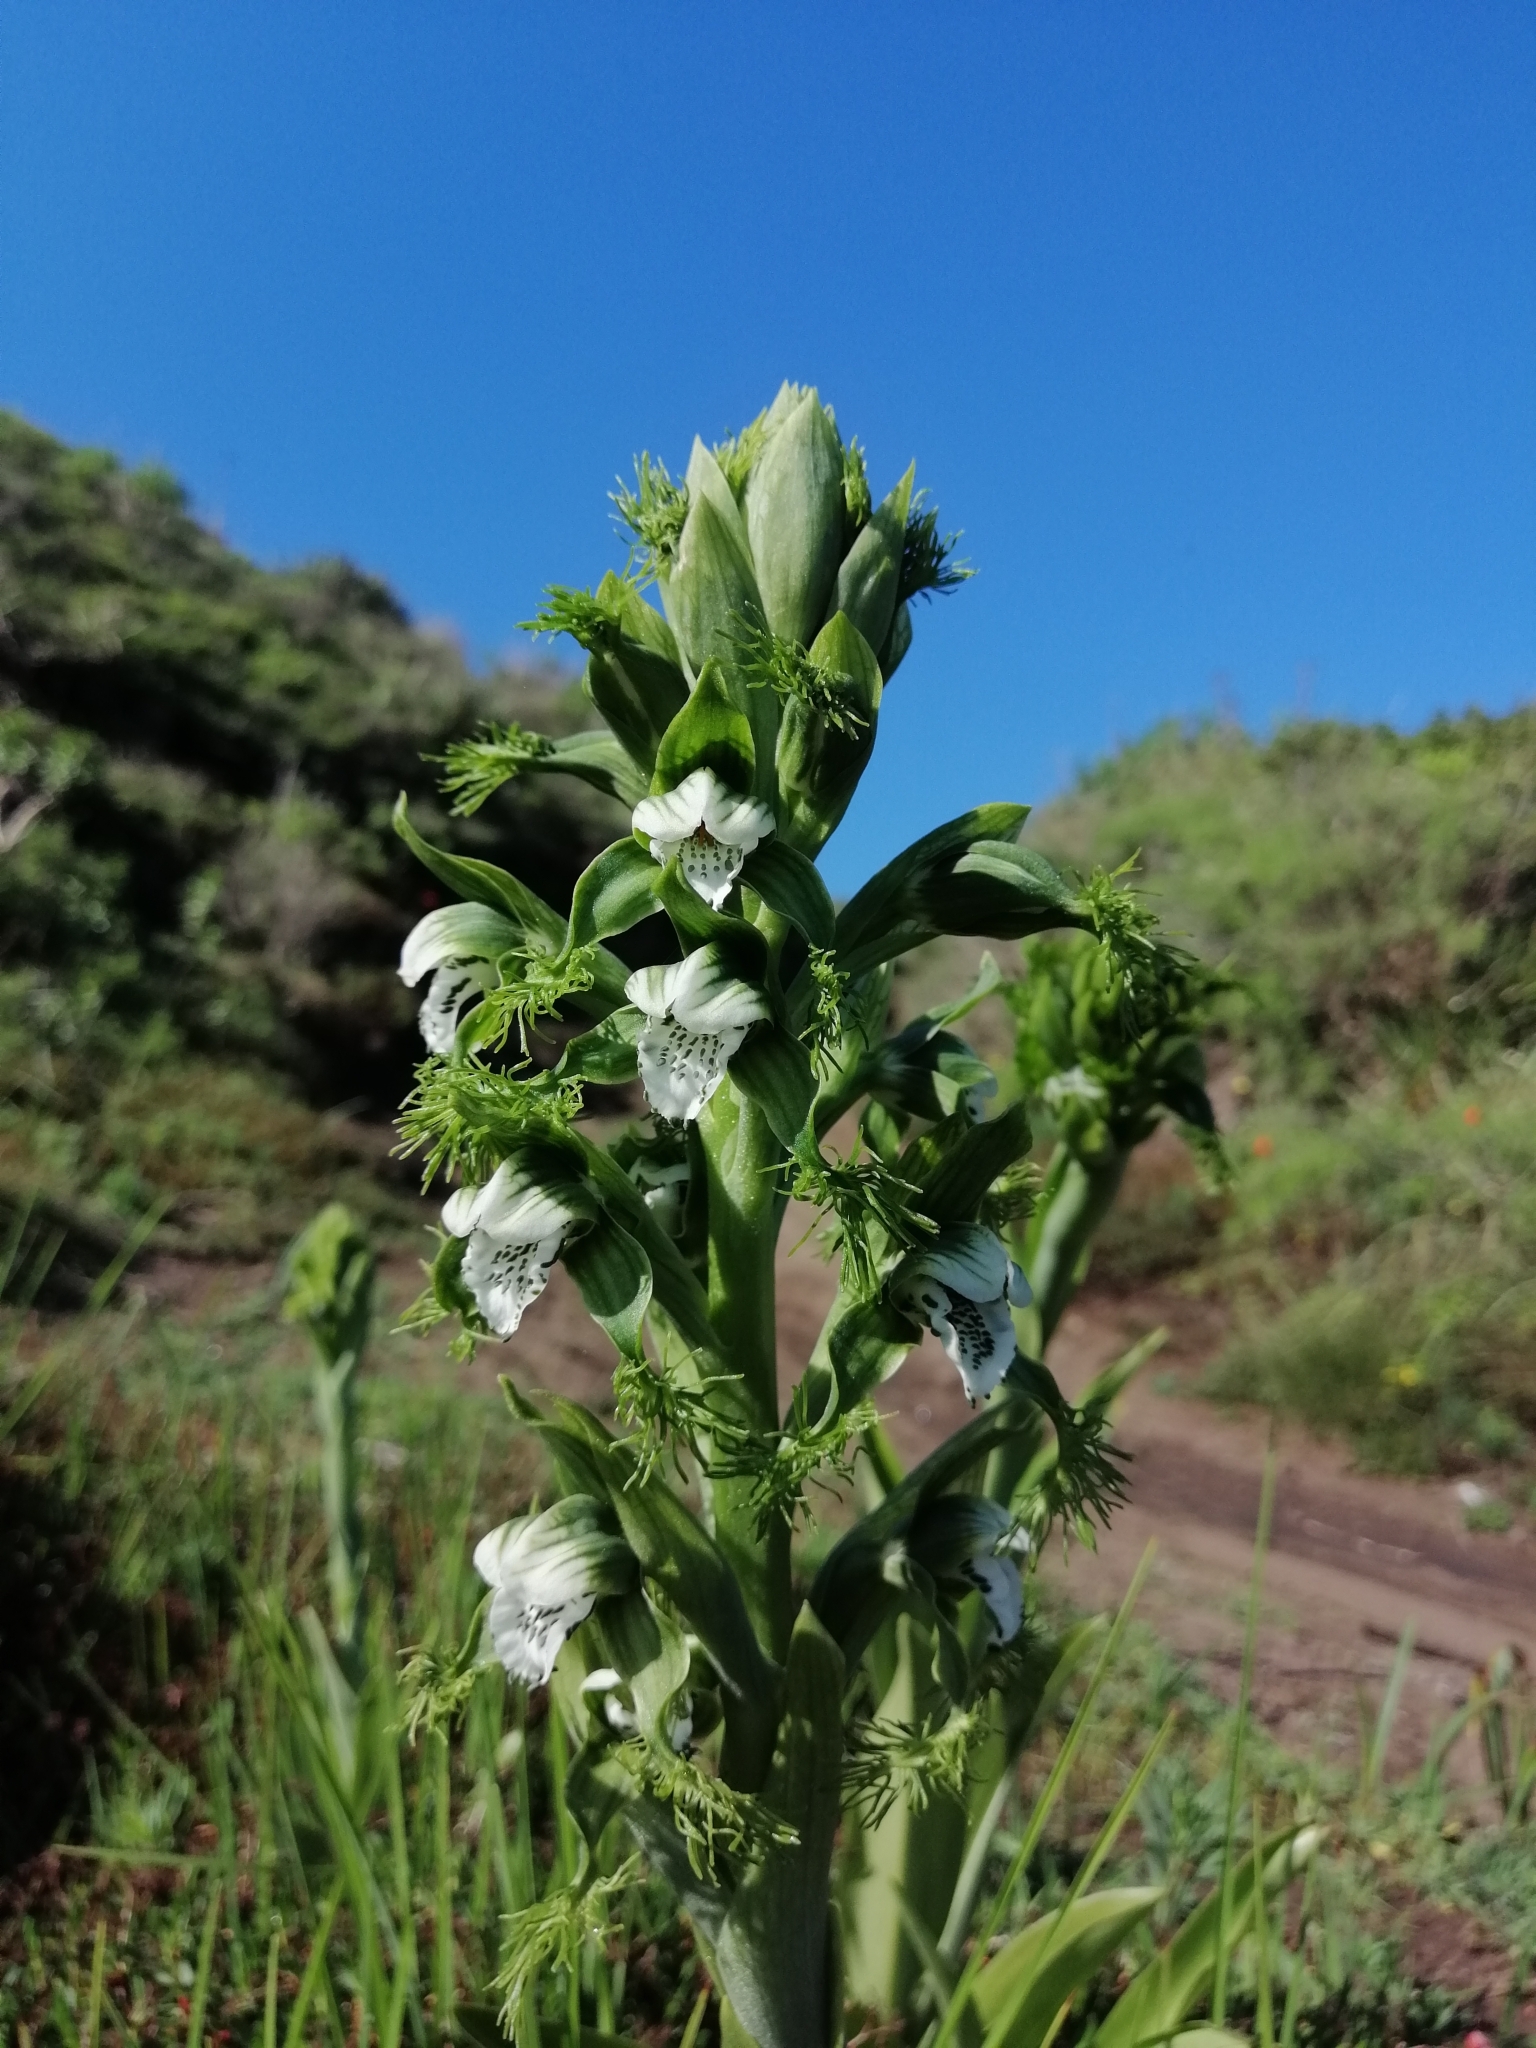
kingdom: Plantae
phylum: Tracheophyta
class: Liliopsida
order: Asparagales
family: Orchidaceae
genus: Bipinnula
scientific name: Bipinnula fimbriata
